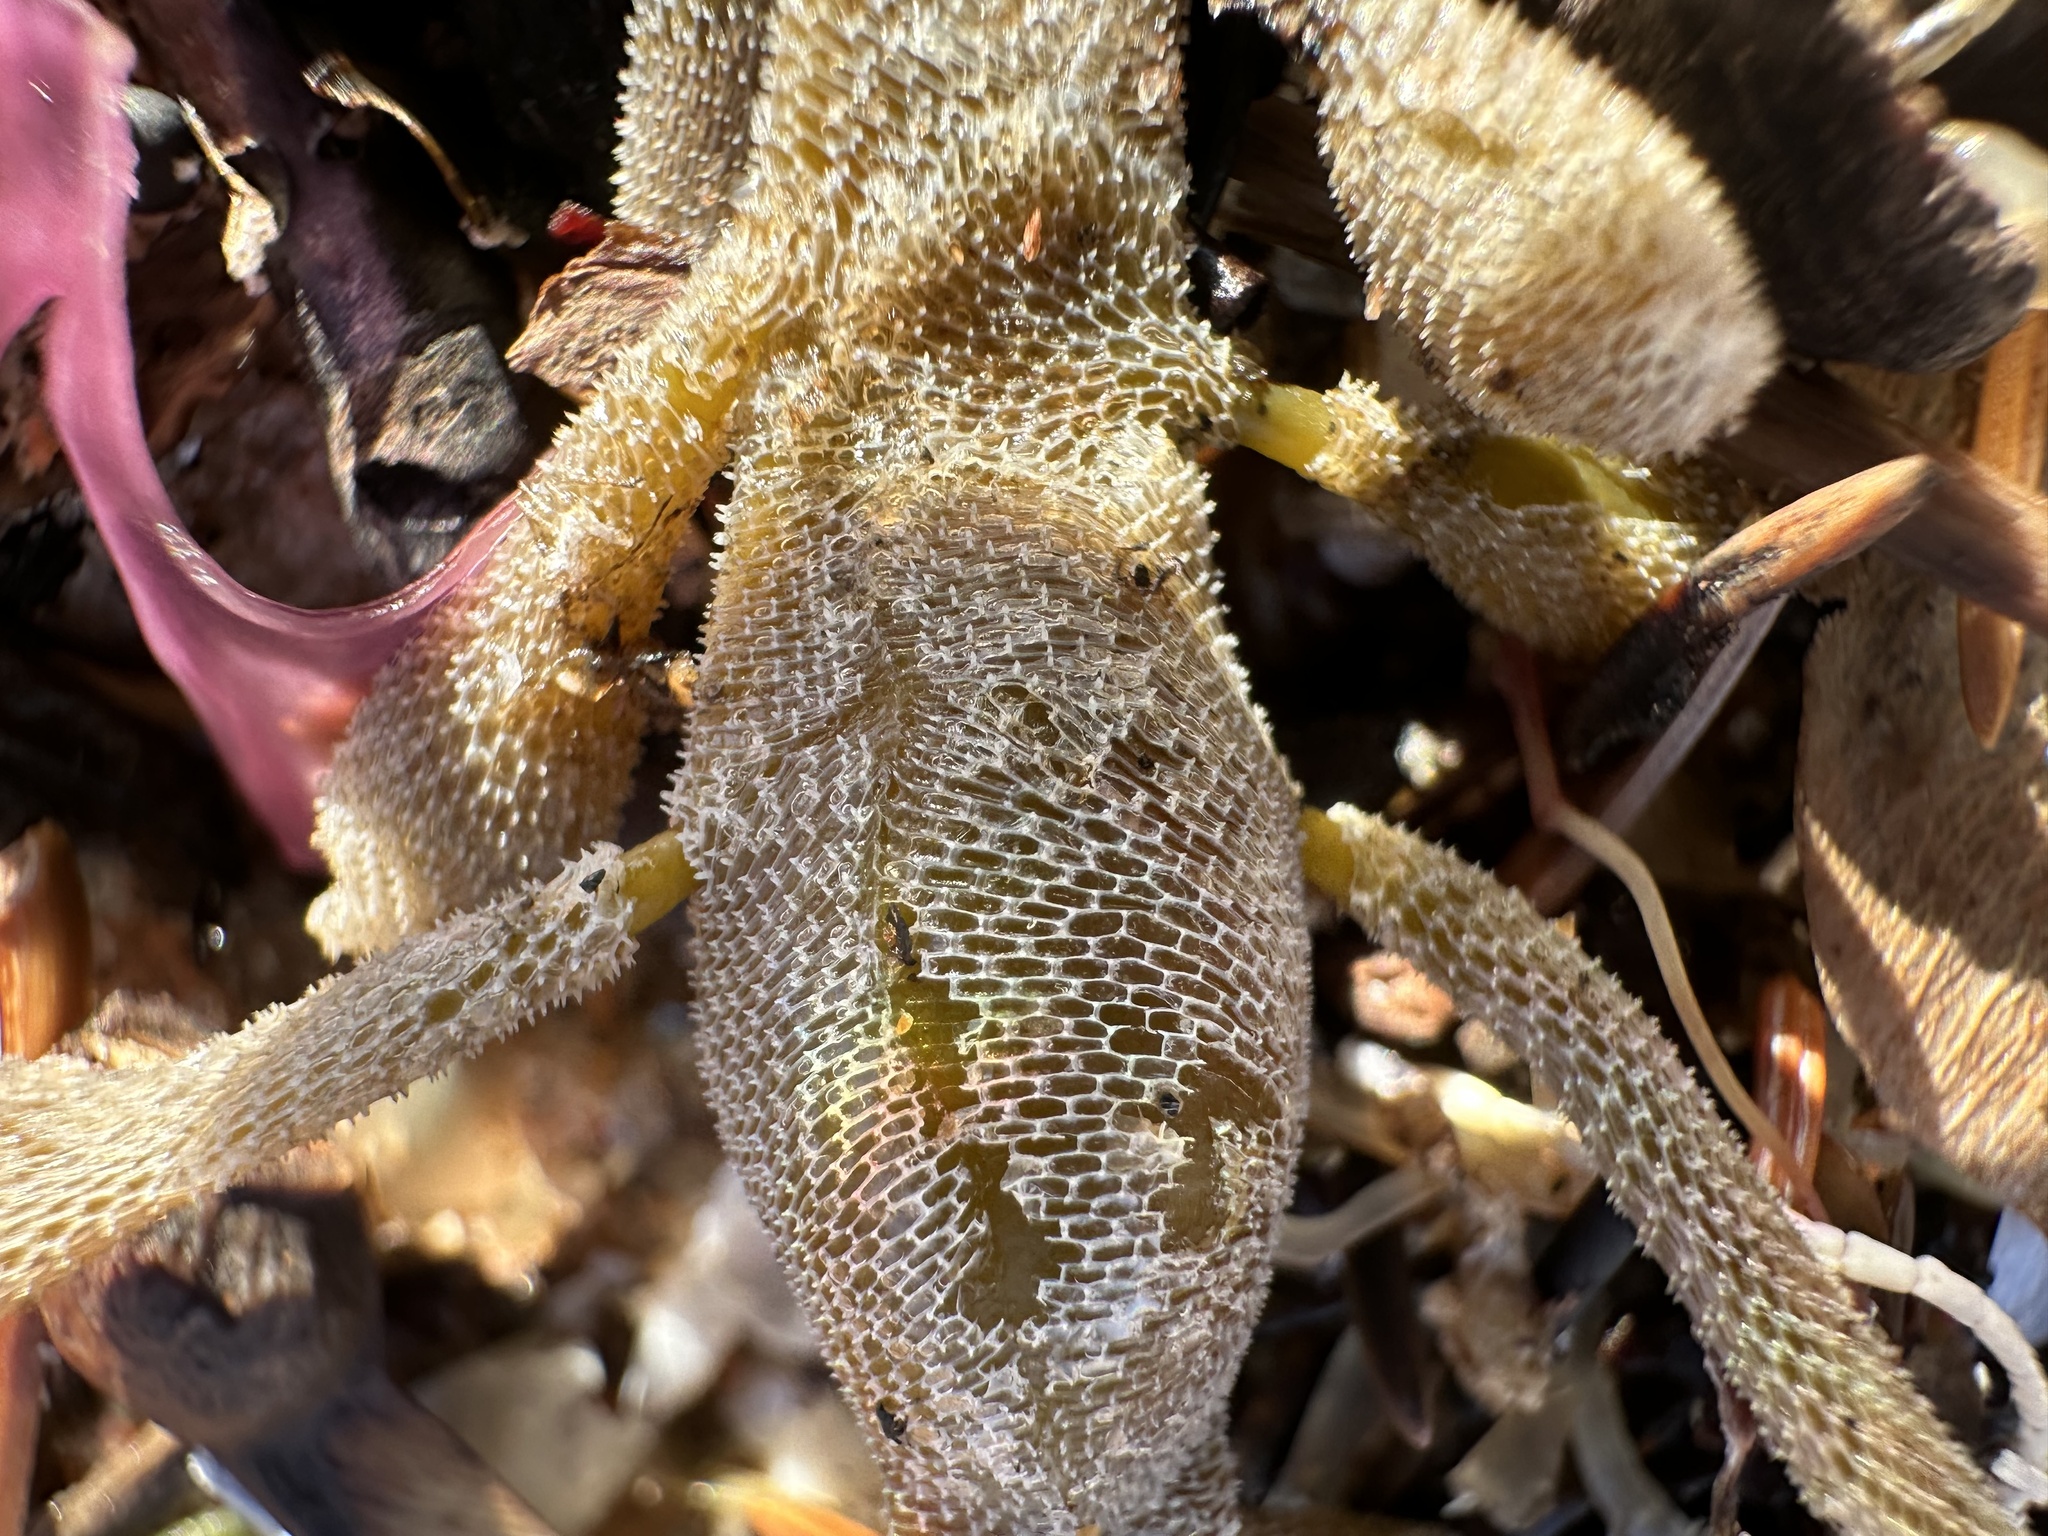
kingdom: Animalia
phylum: Bryozoa
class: Gymnolaemata
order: Cheilostomatida
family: Membraniporidae
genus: Membranipora
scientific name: Membranipora membranacea
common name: Sea mat
